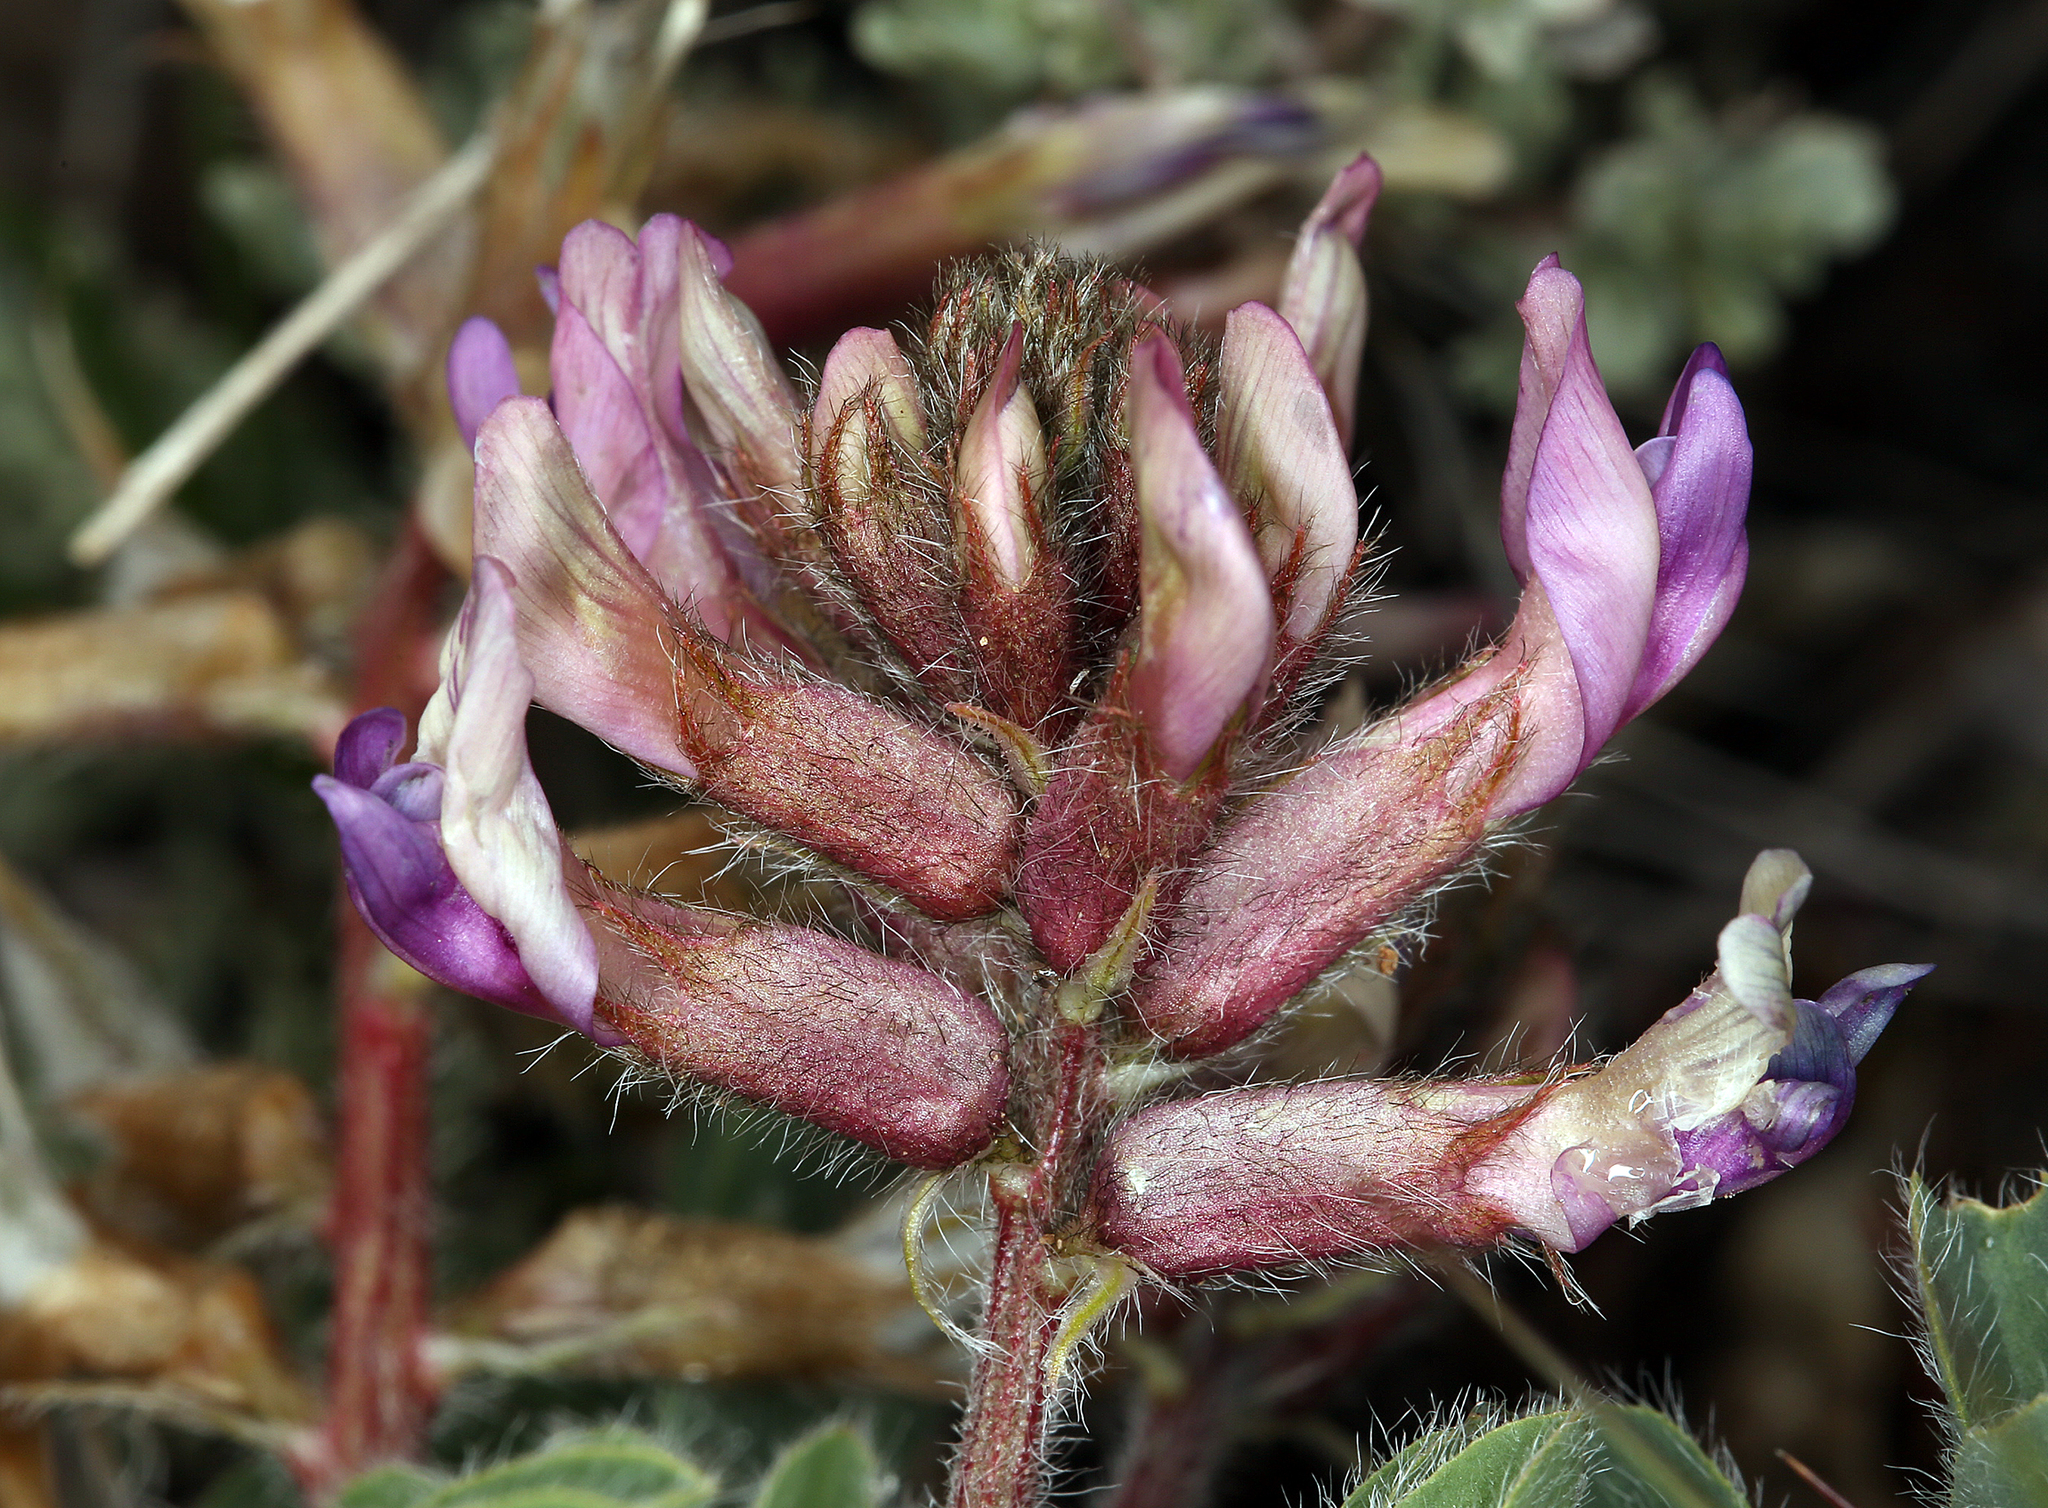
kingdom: Plantae
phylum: Tracheophyta
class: Magnoliopsida
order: Fabales
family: Fabaceae
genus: Astragalus
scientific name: Astragalus malacus
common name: Shaggy milk-vetch
